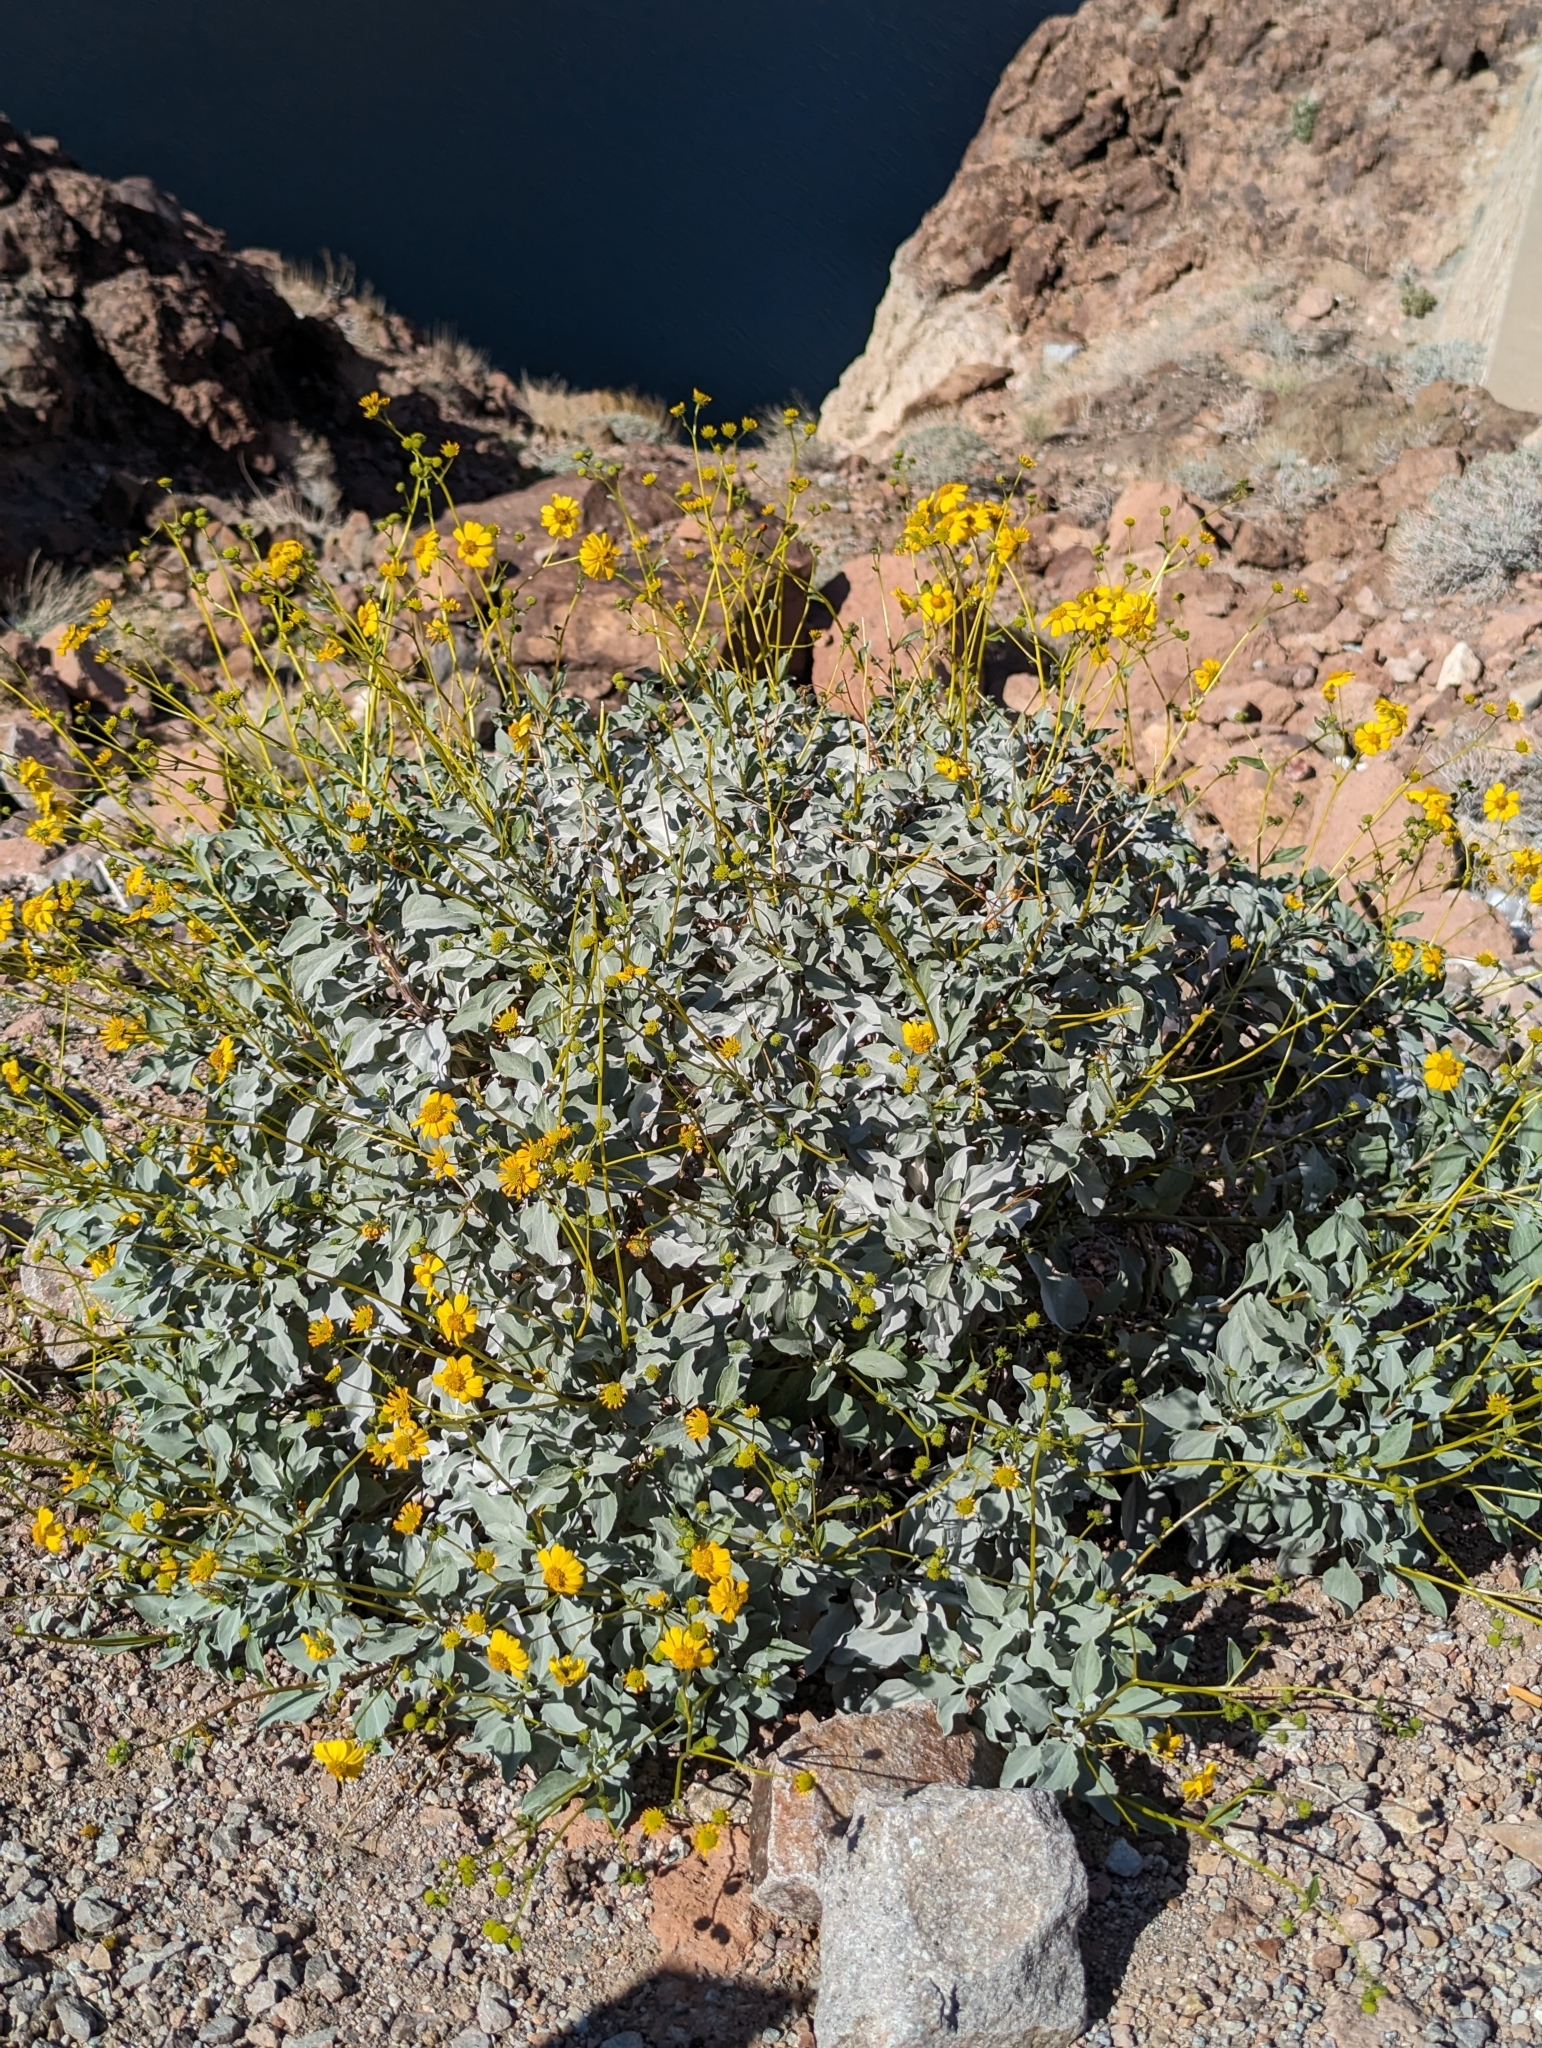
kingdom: Plantae
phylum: Tracheophyta
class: Magnoliopsida
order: Asterales
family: Asteraceae
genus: Encelia
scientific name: Encelia farinosa
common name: Brittlebush
